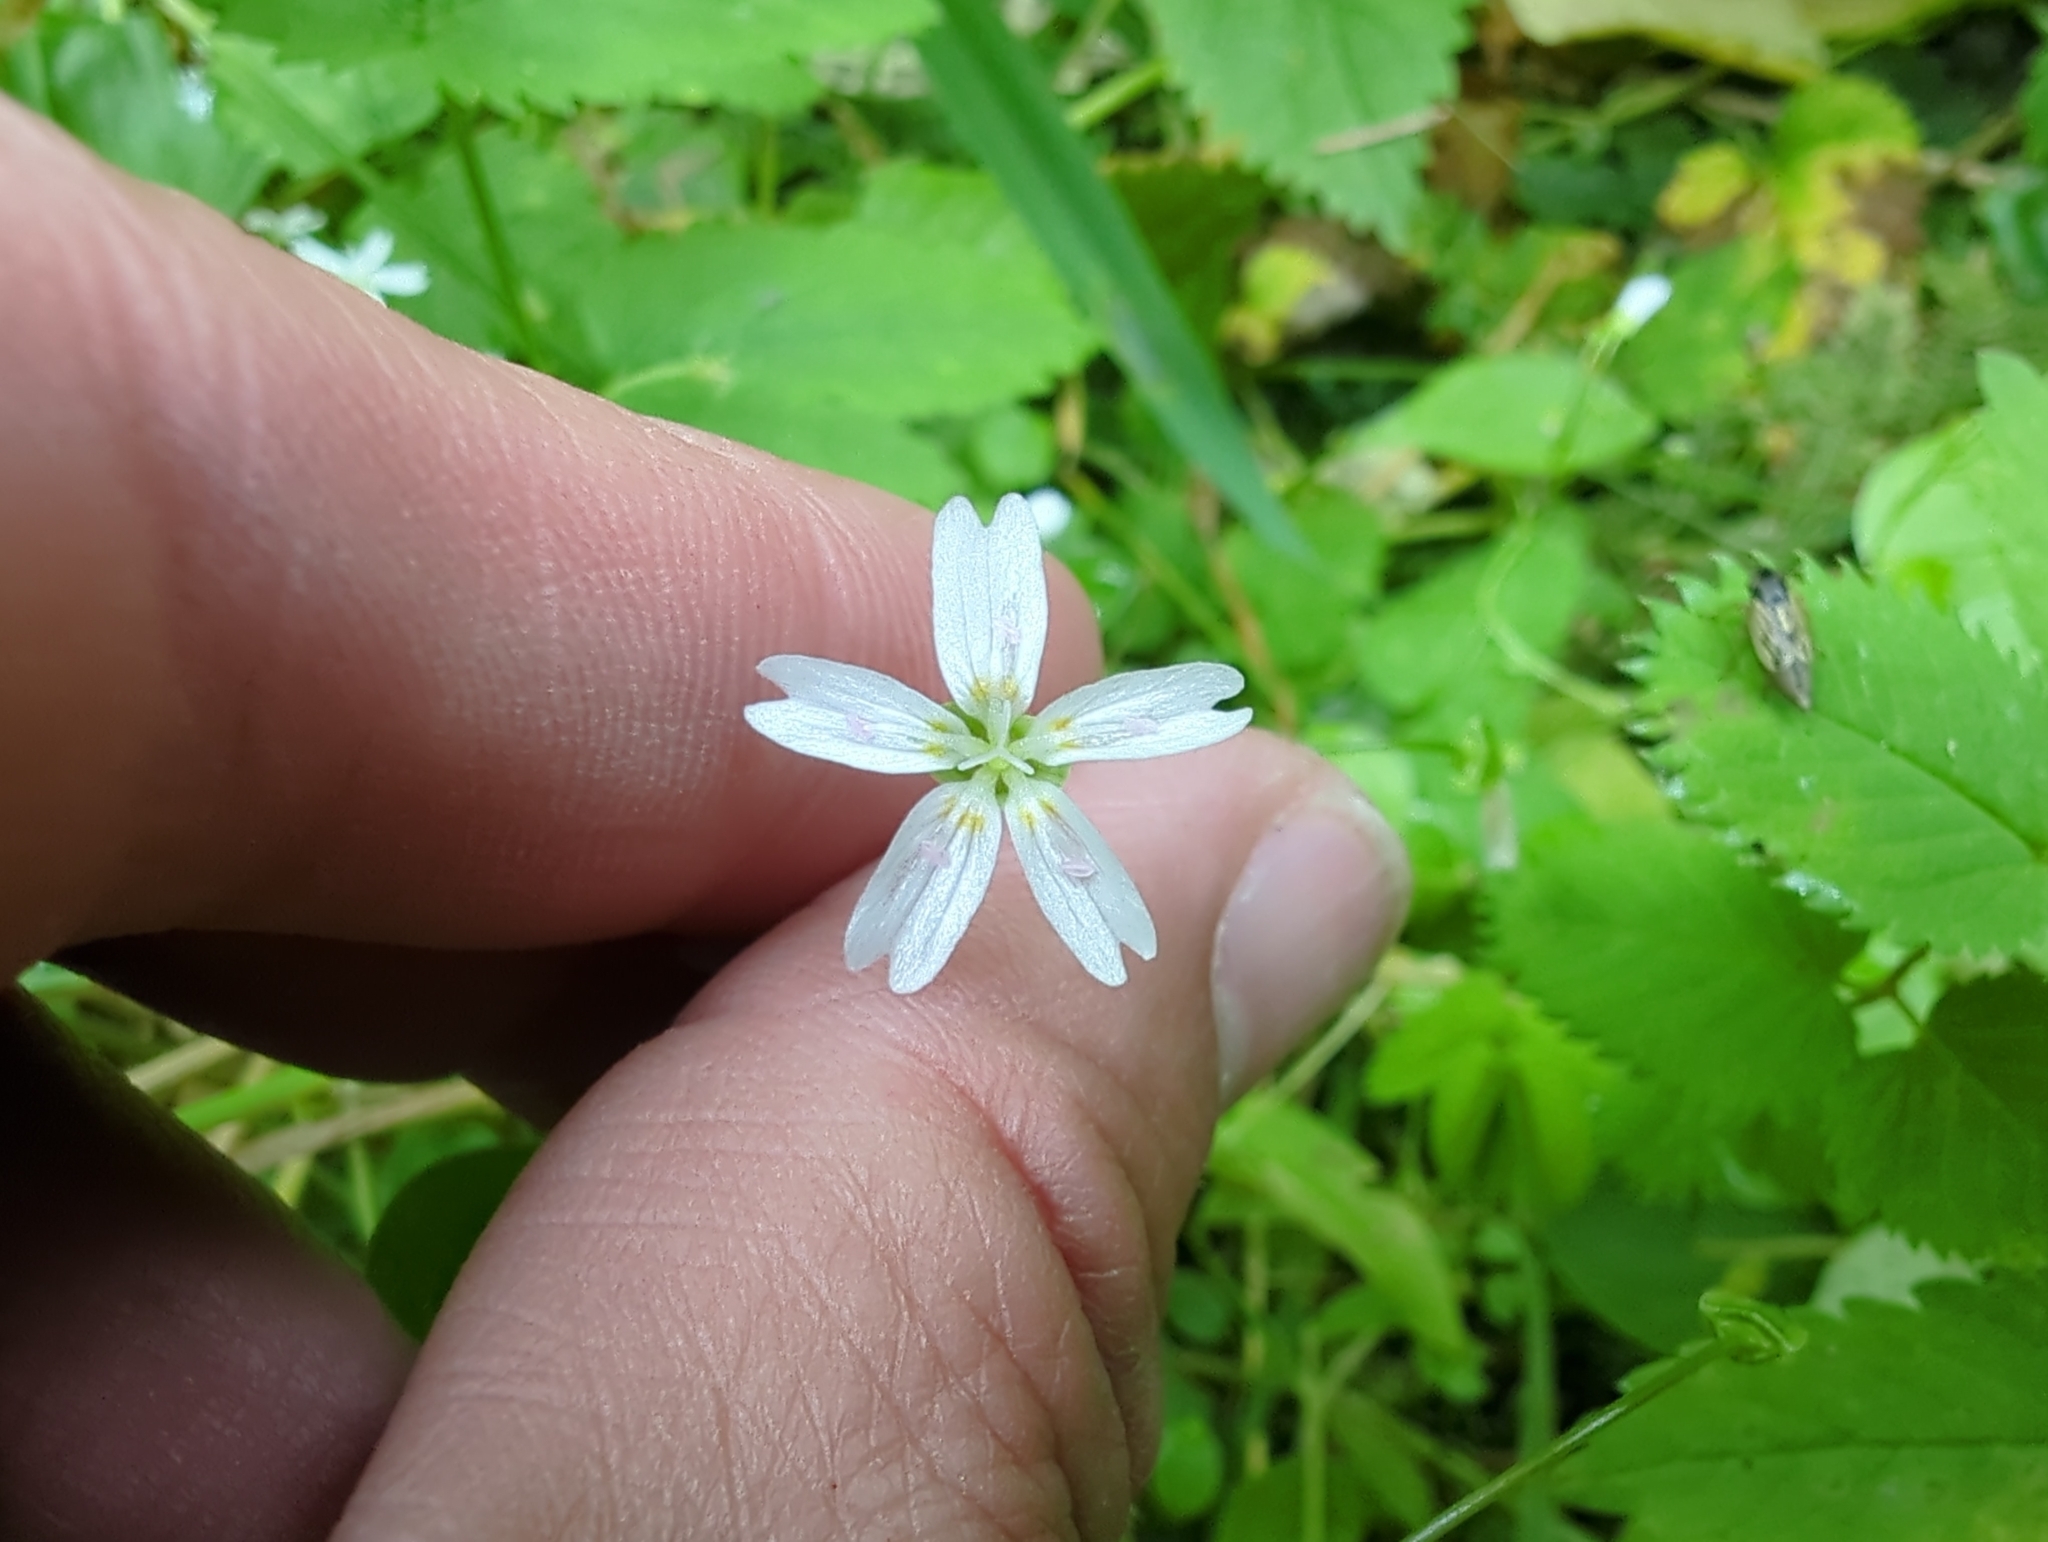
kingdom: Plantae
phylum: Tracheophyta
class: Magnoliopsida
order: Caryophyllales
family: Montiaceae
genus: Claytonia
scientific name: Claytonia sibirica
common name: Pink purslane
